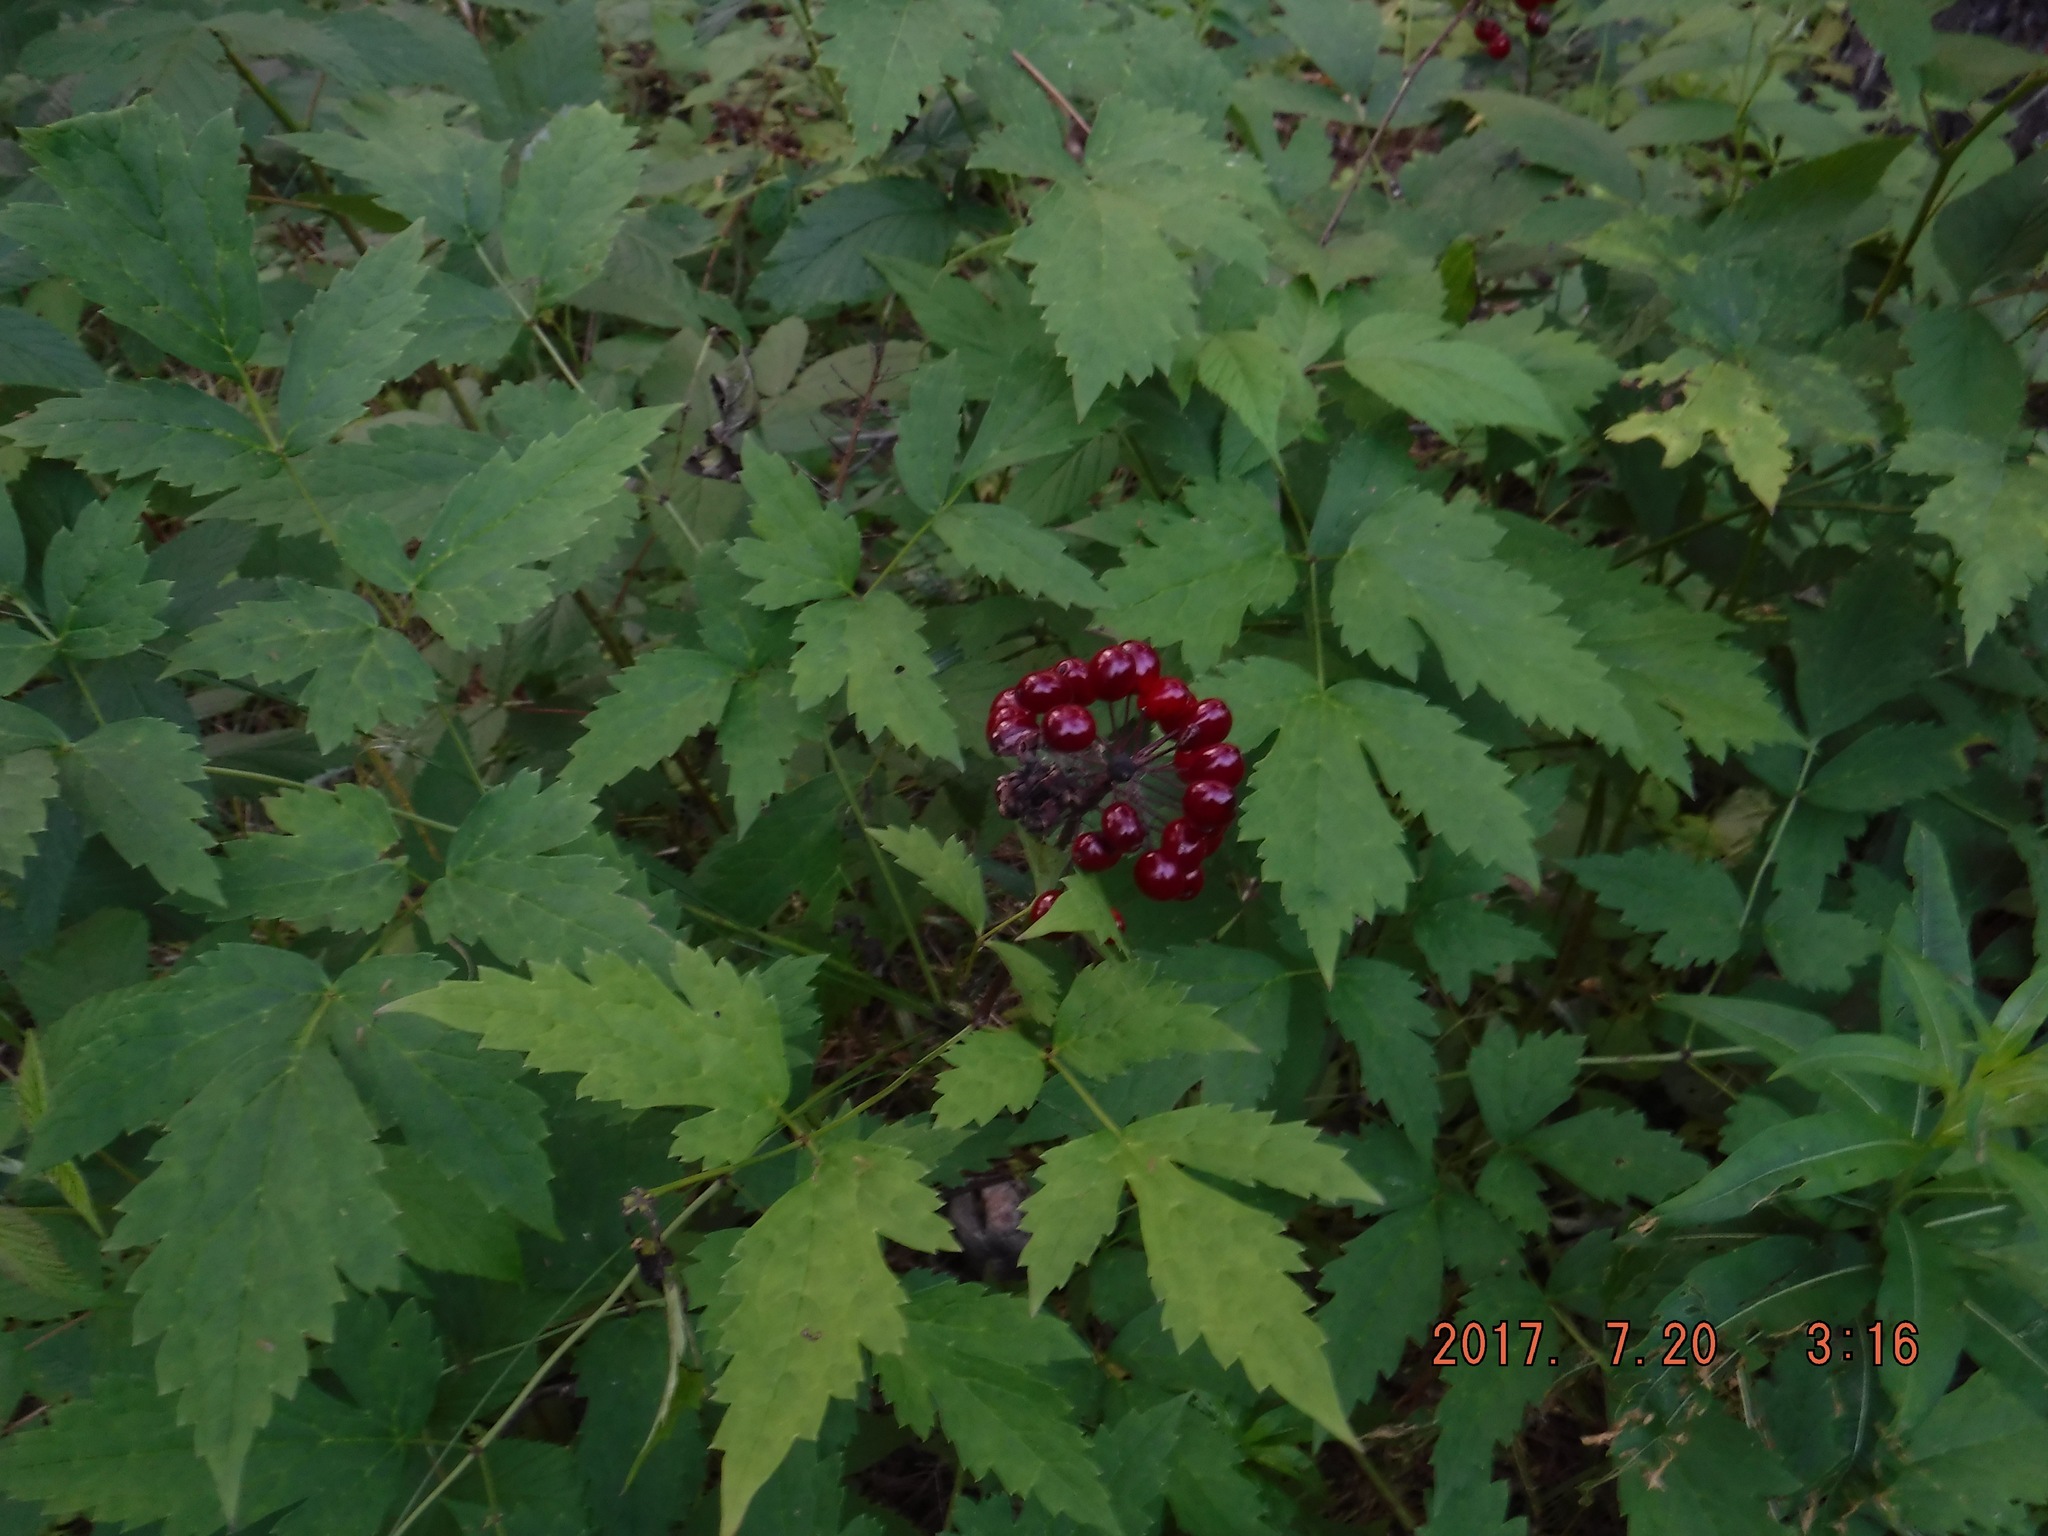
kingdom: Plantae
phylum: Tracheophyta
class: Magnoliopsida
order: Ranunculales
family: Ranunculaceae
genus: Actaea
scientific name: Actaea rubra
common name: Red baneberry
